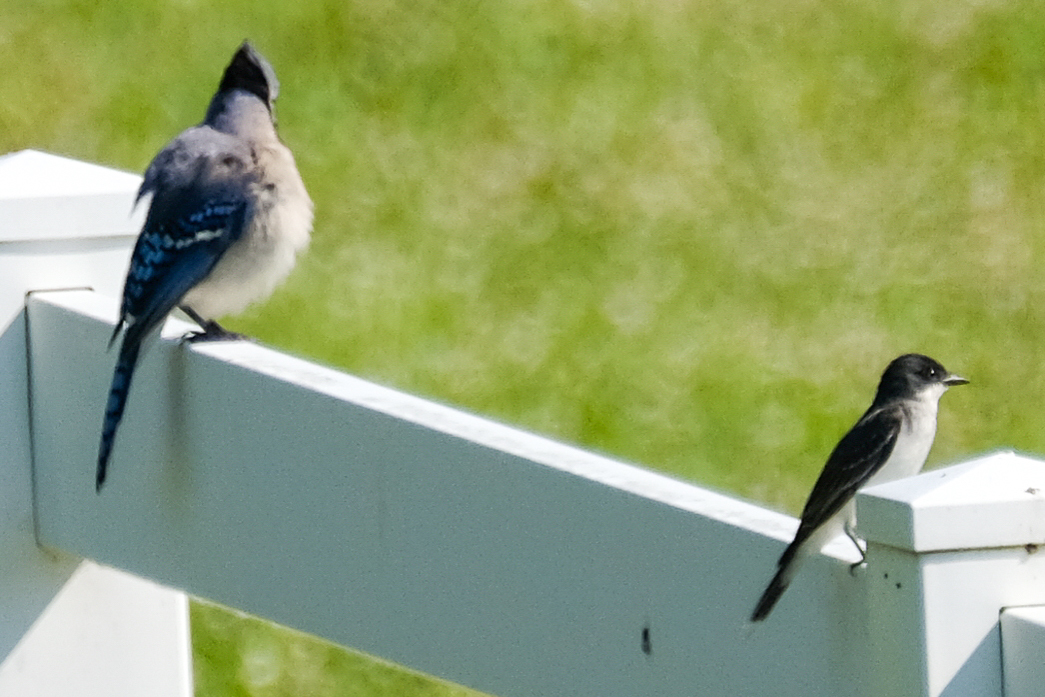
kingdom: Animalia
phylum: Chordata
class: Aves
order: Passeriformes
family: Corvidae
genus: Cyanocitta
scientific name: Cyanocitta cristata
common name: Blue jay
